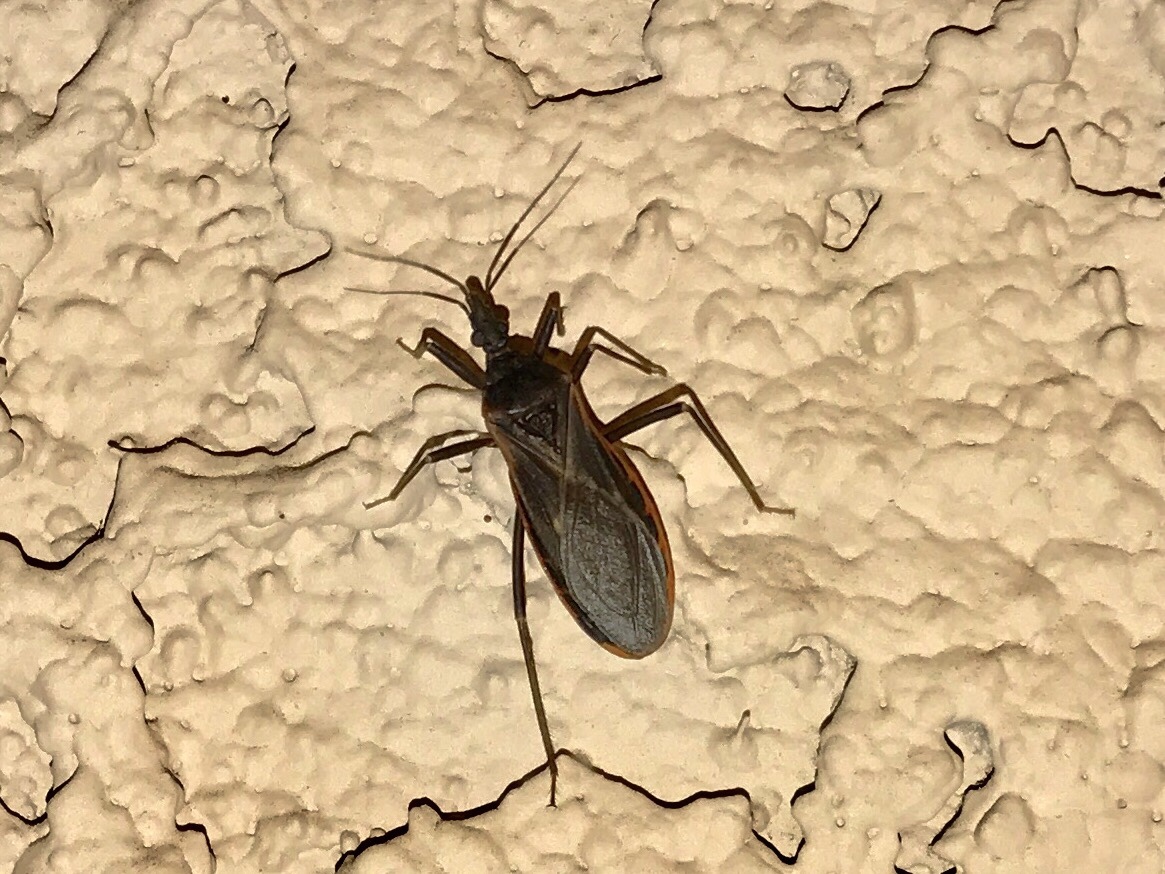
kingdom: Animalia
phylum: Arthropoda
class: Insecta
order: Hemiptera
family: Reduviidae
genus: Triatoma
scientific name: Triatoma rubida
